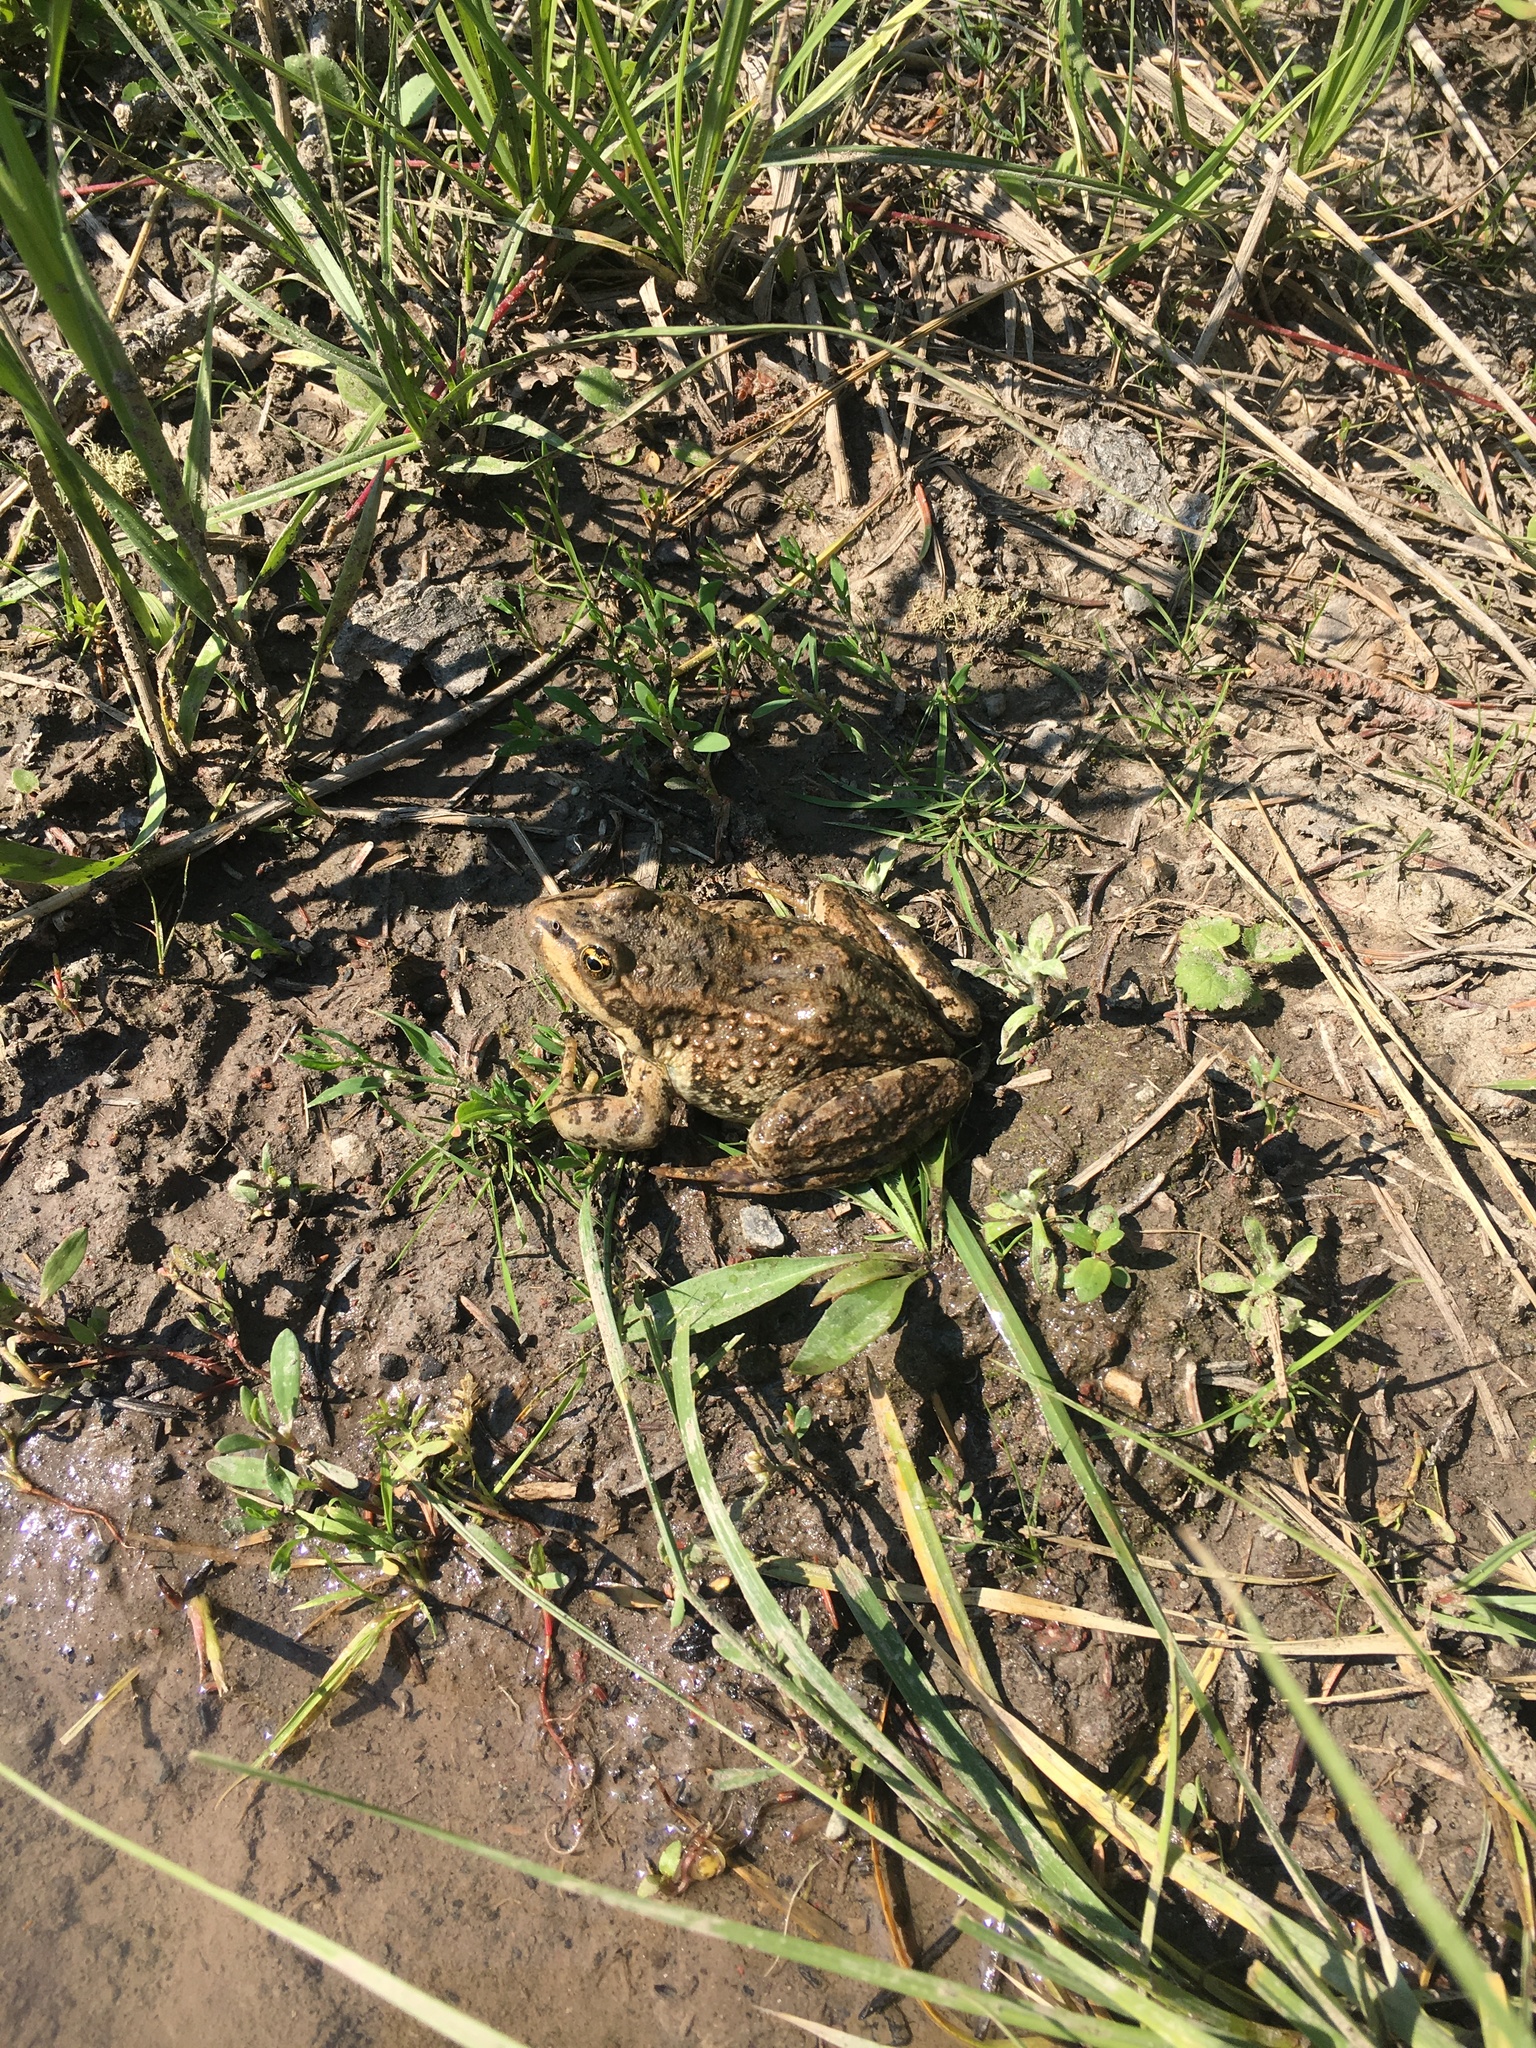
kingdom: Animalia
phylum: Chordata
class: Amphibia
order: Anura
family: Ranidae
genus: Rana
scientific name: Rana luteiventris
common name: Columbia spotted frog
